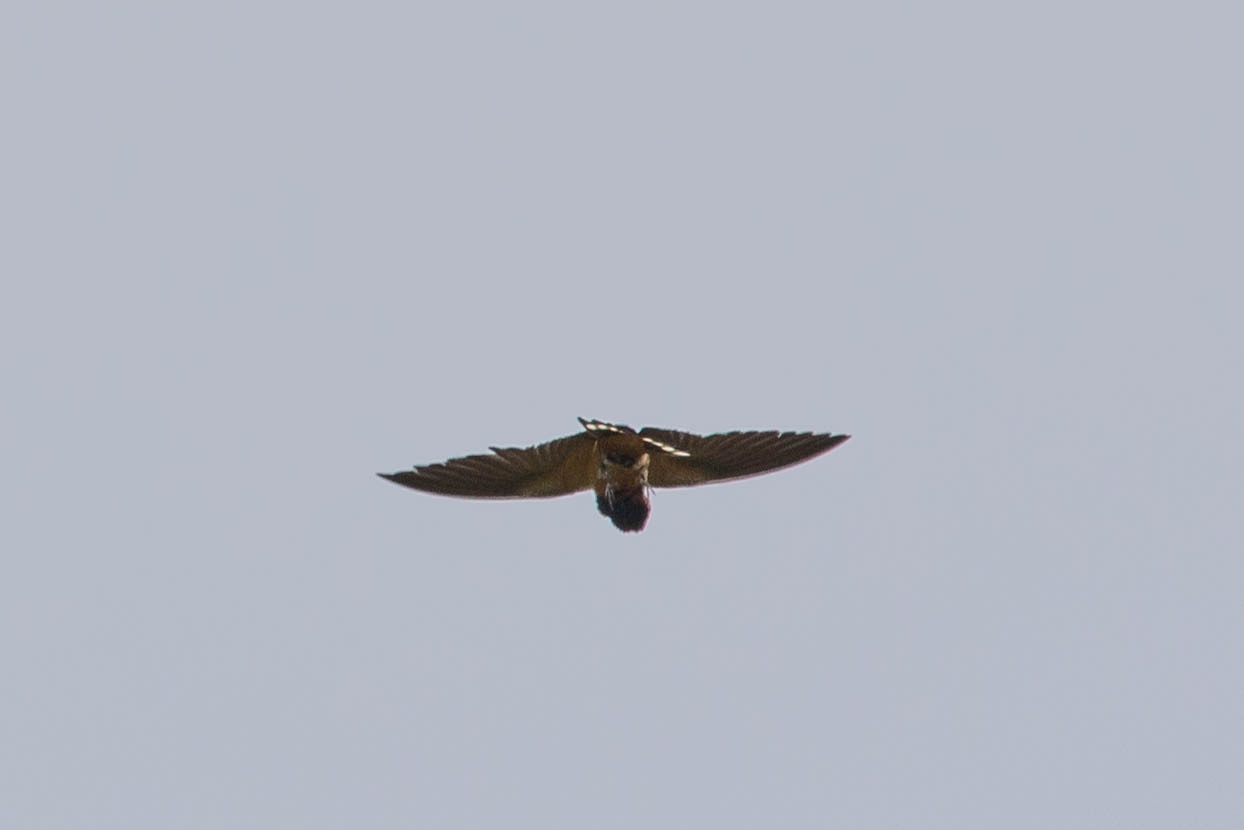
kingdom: Animalia
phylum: Chordata
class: Aves
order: Passeriformes
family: Hirundinidae
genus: Hirundo
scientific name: Hirundo rustica
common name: Barn swallow
